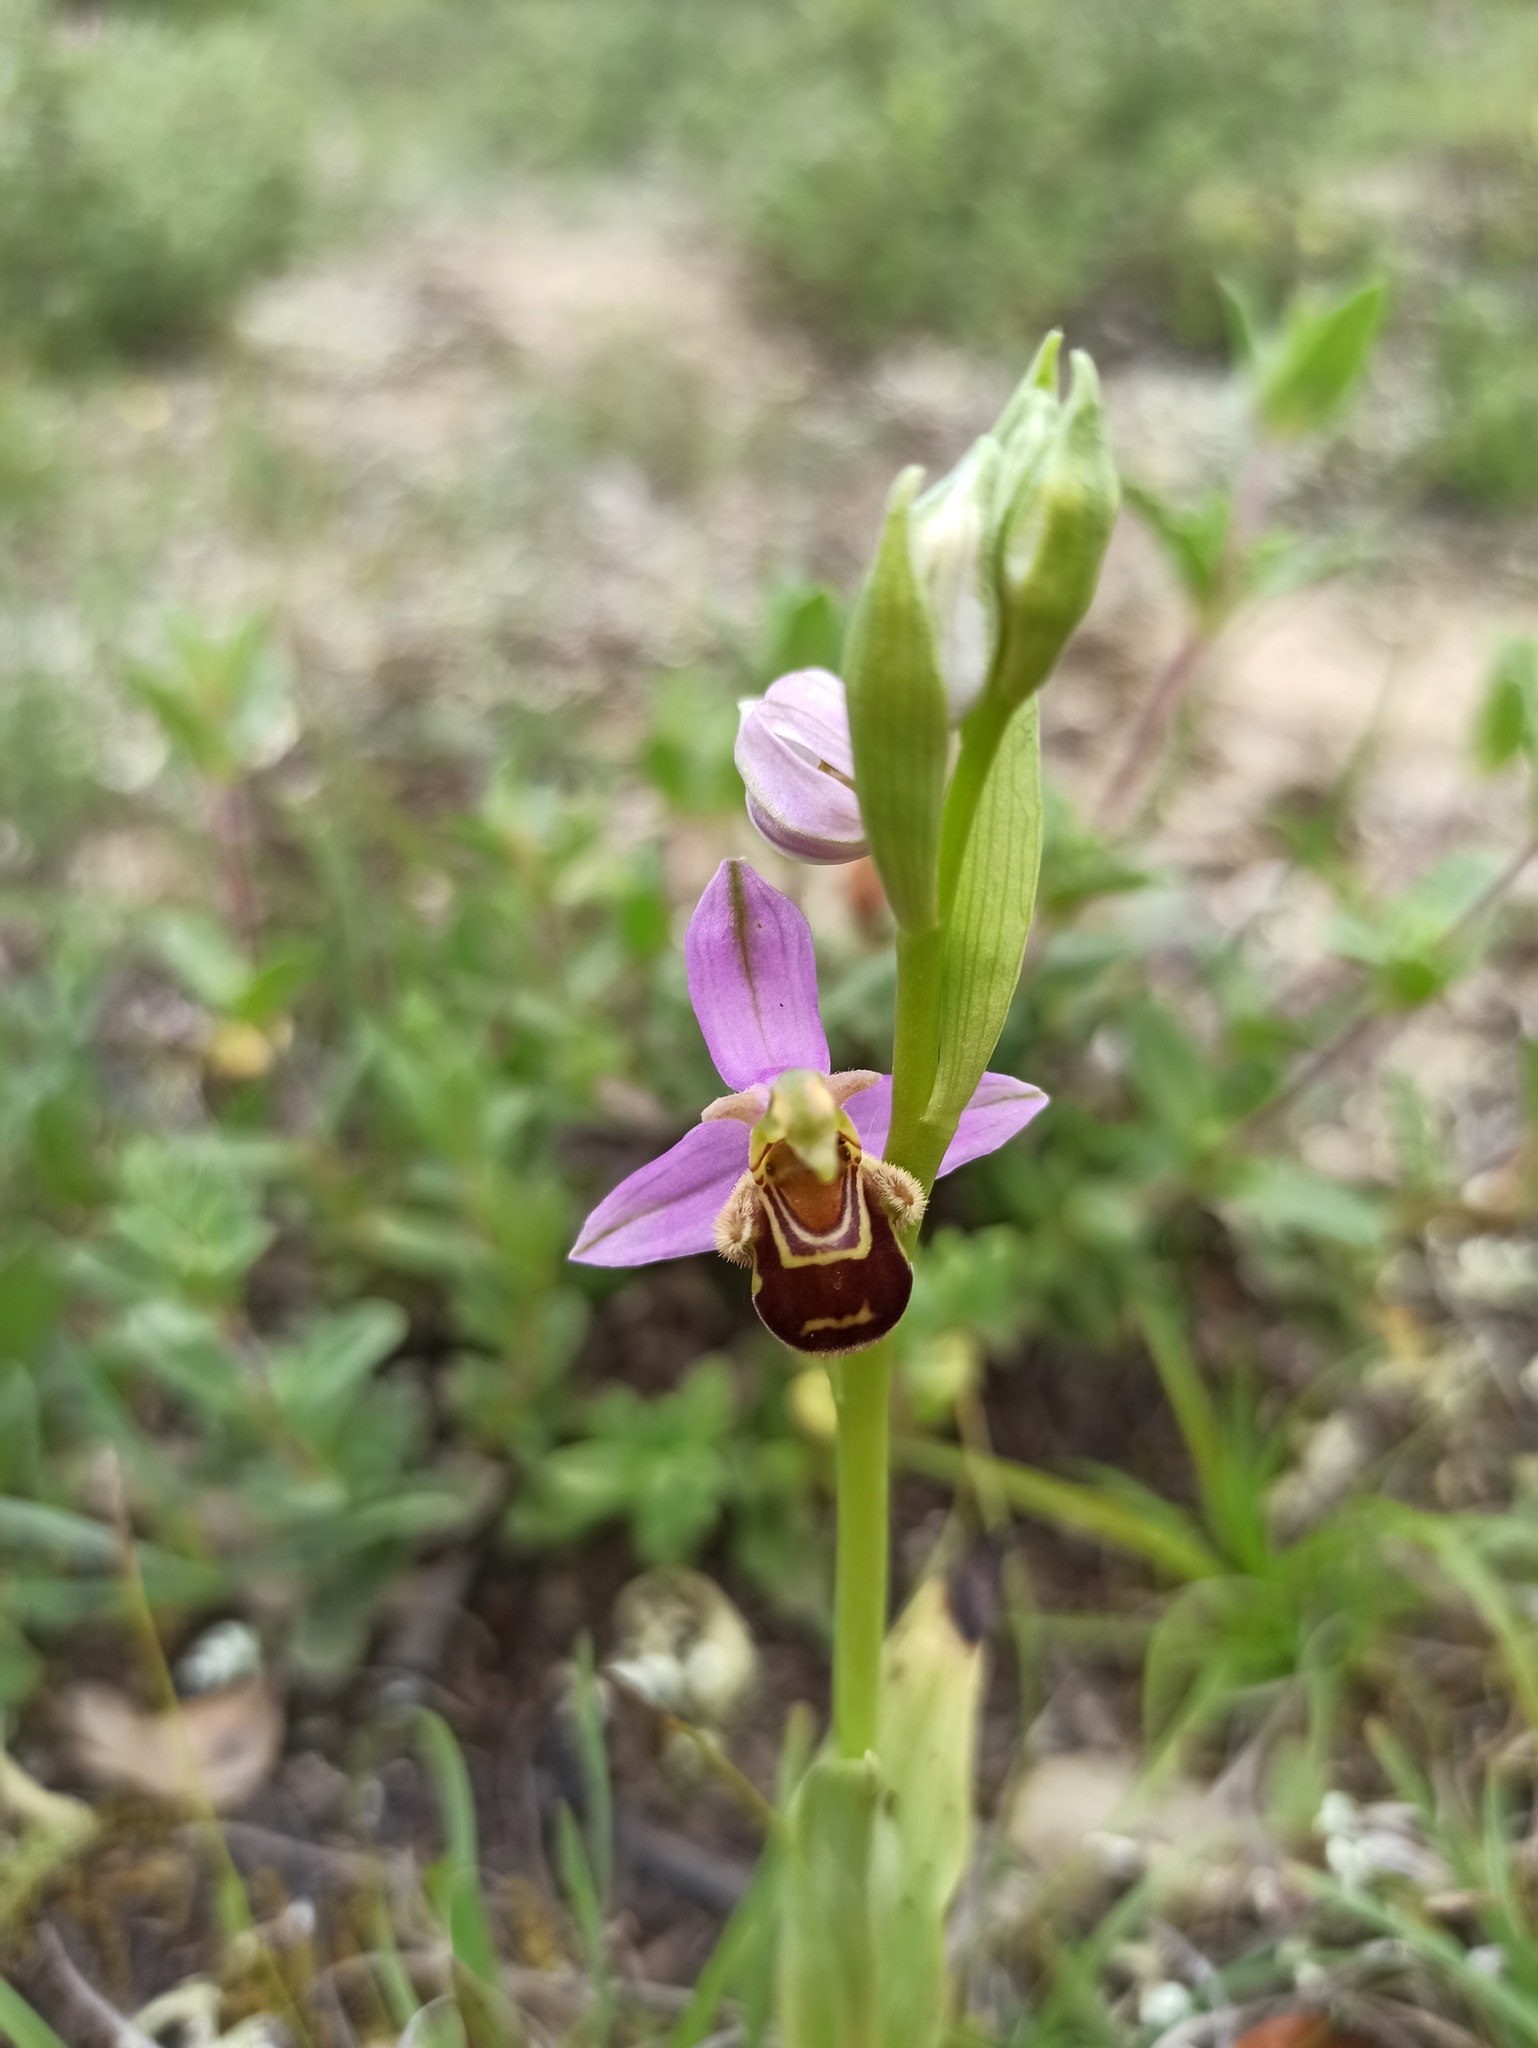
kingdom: Plantae
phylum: Tracheophyta
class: Liliopsida
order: Asparagales
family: Orchidaceae
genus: Ophrys
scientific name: Ophrys apifera
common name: Bee orchid
